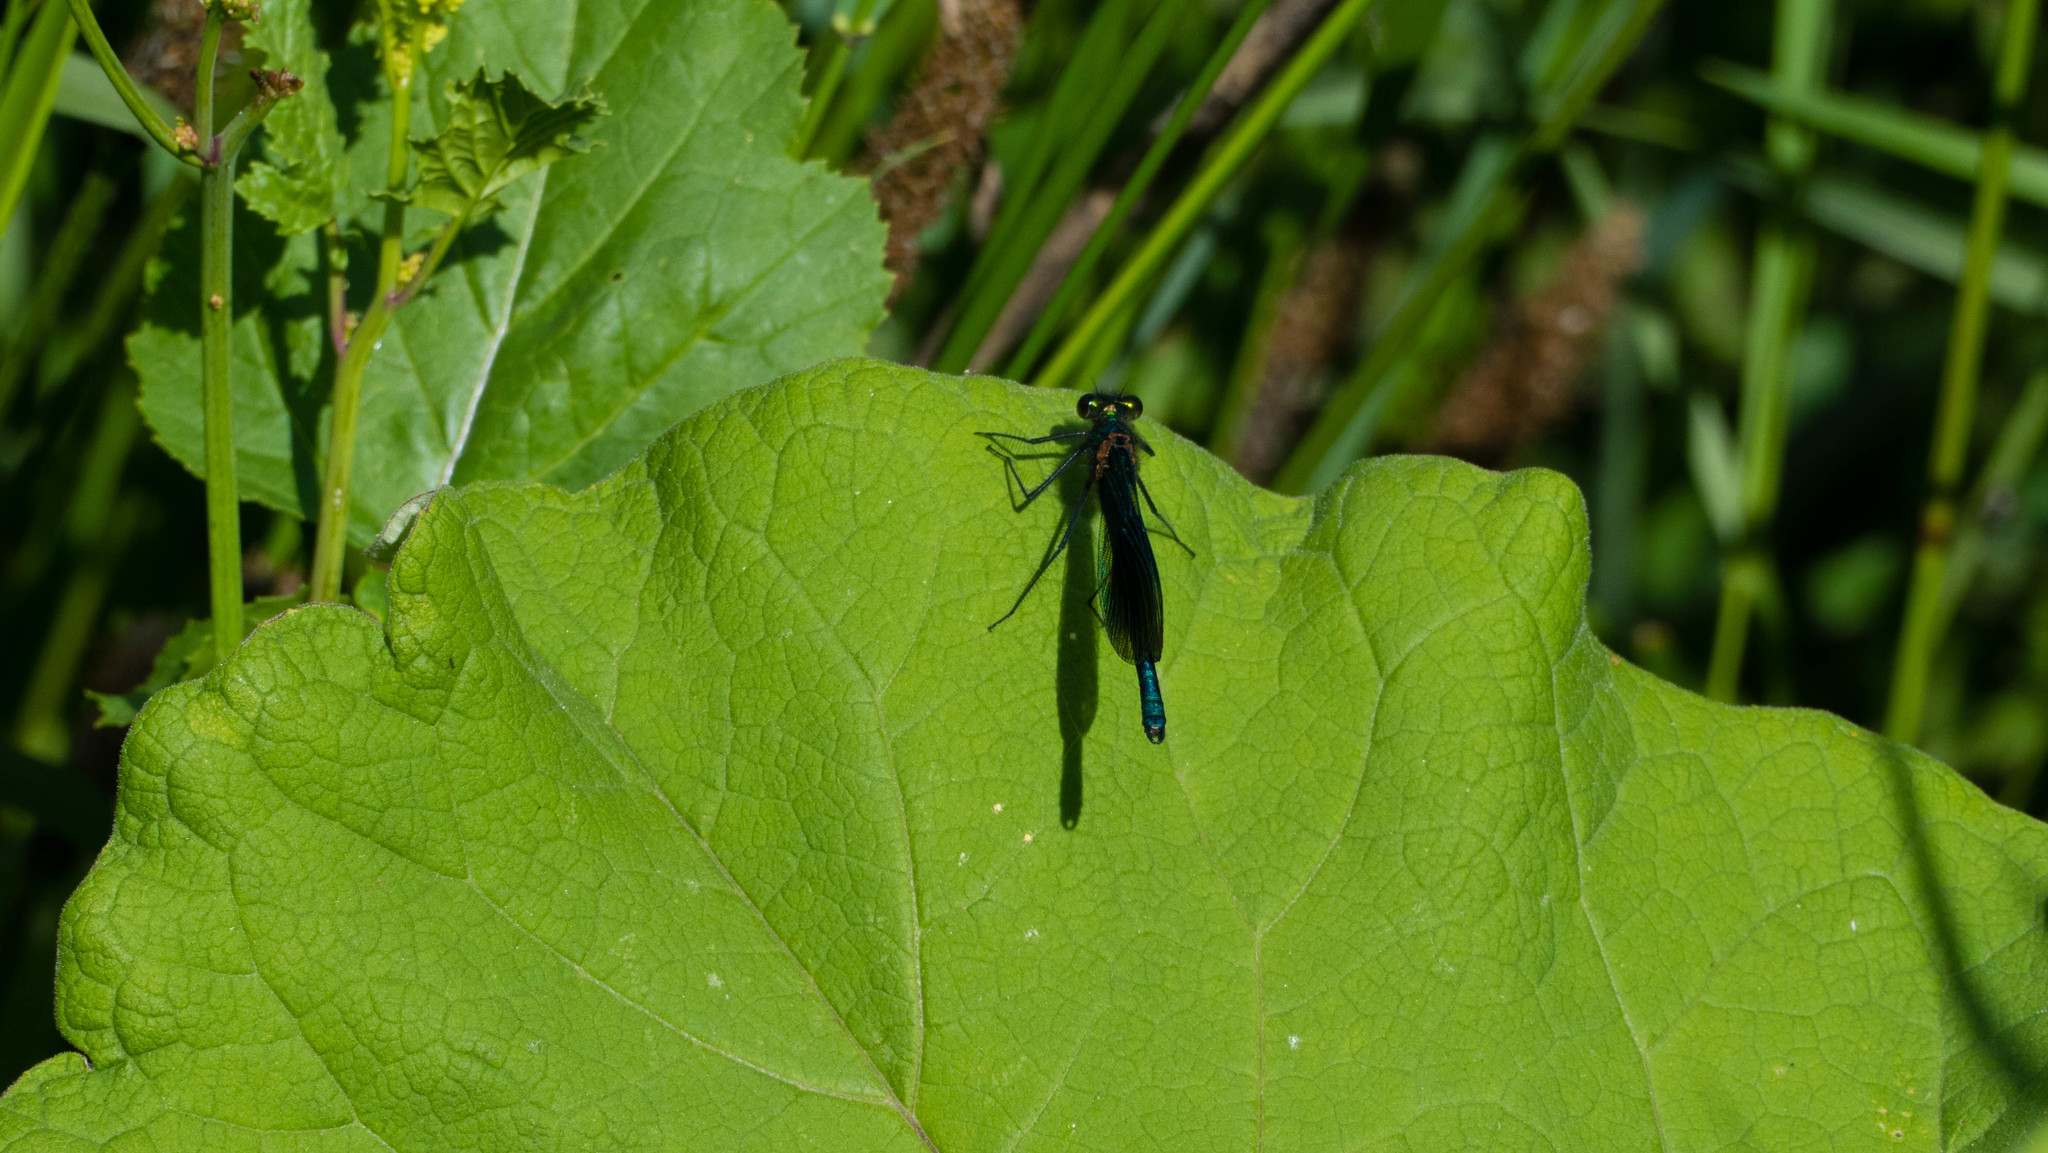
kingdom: Animalia
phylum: Arthropoda
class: Insecta
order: Odonata
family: Calopterygidae
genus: Calopteryx
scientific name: Calopteryx splendens
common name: Banded demoiselle
